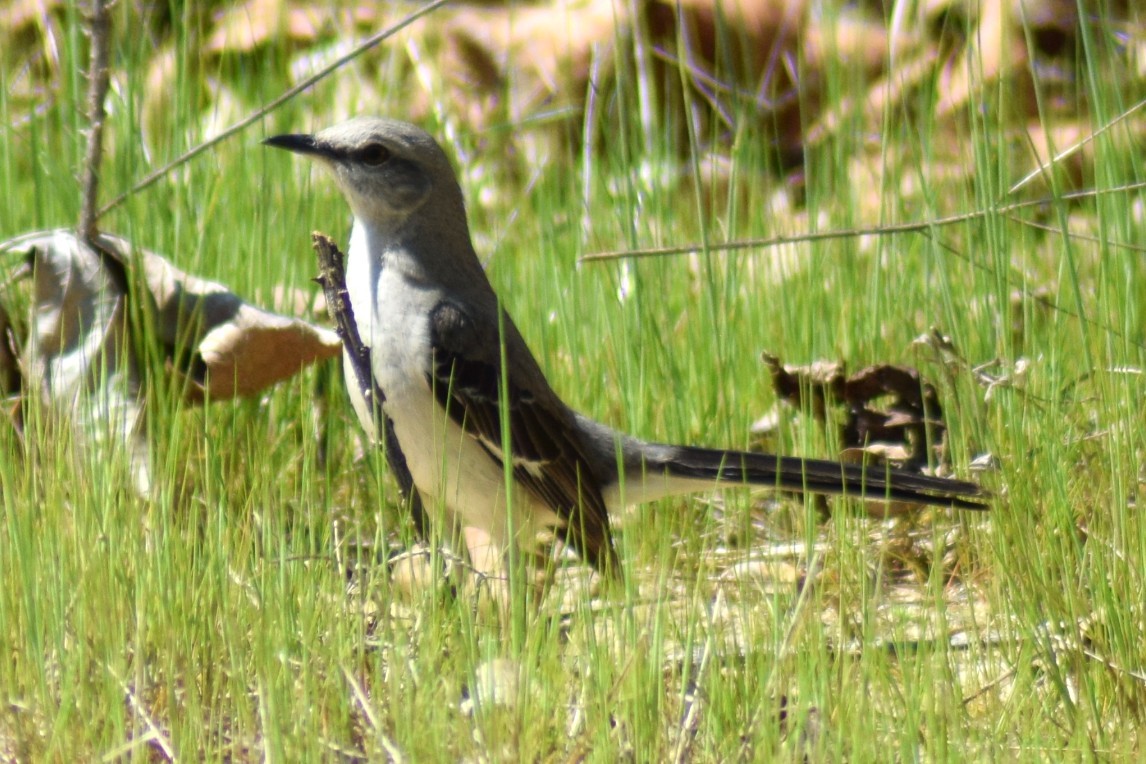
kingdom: Animalia
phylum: Chordata
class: Aves
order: Passeriformes
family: Mimidae
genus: Mimus
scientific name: Mimus polyglottos
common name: Northern mockingbird
